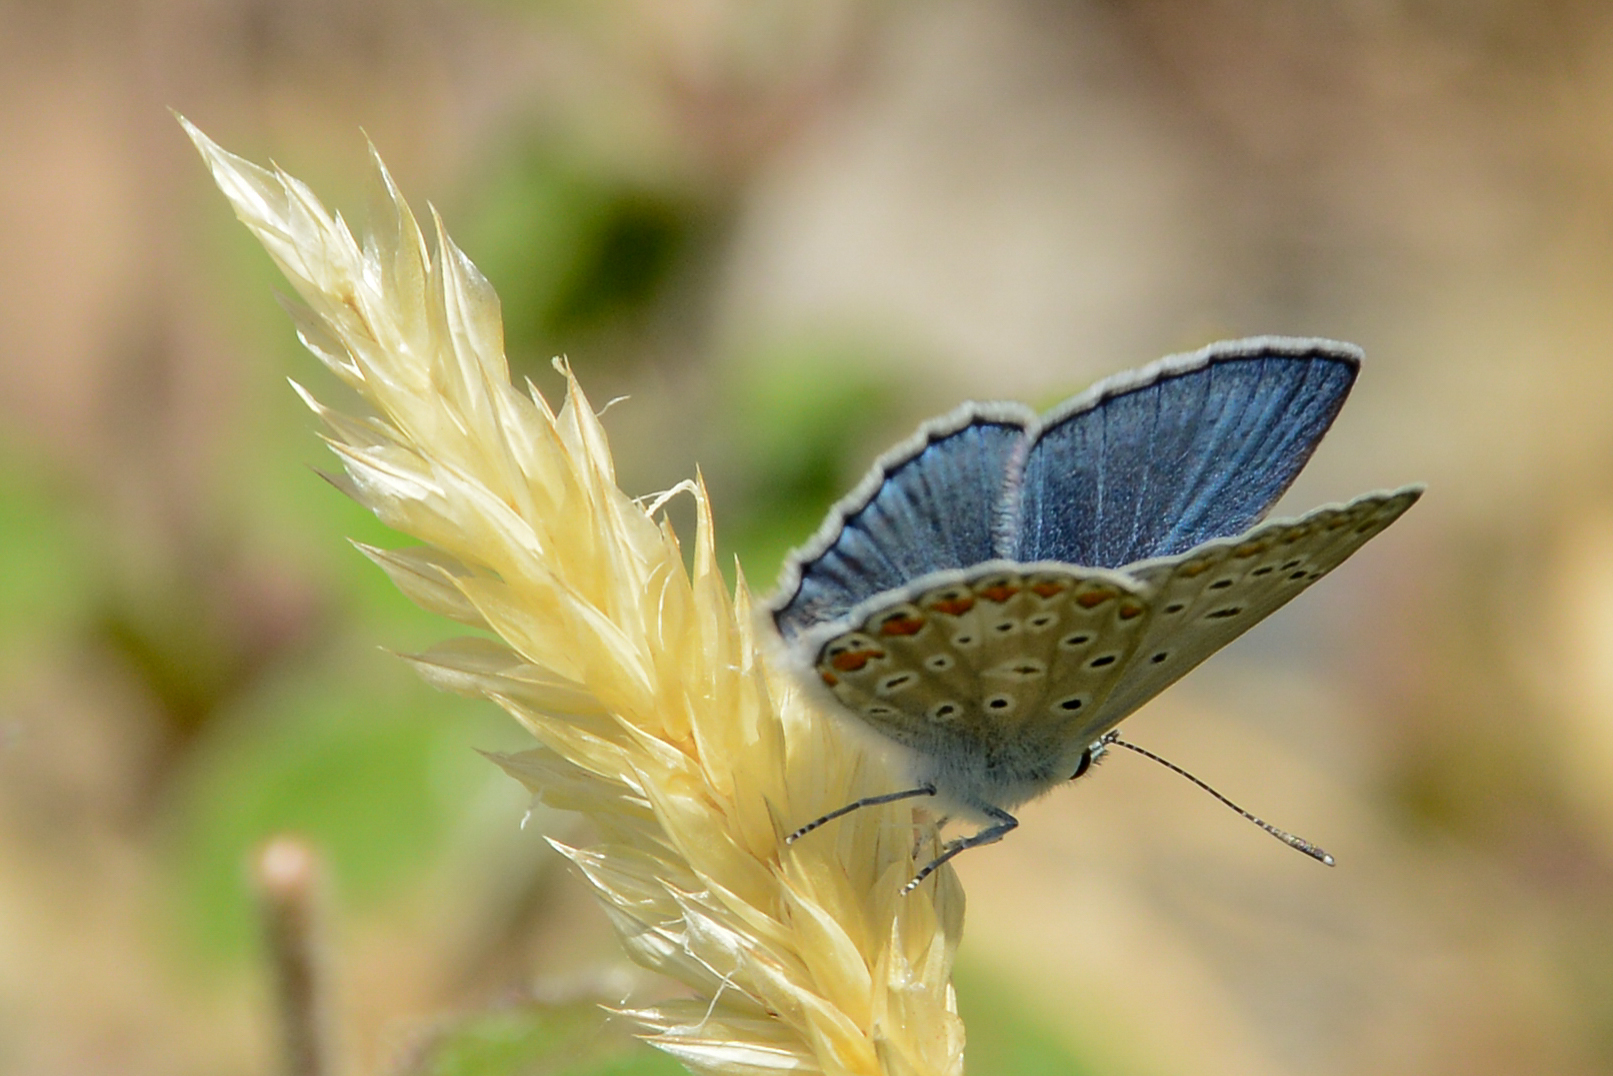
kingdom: Animalia
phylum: Arthropoda
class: Insecta
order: Lepidoptera
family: Lycaenidae
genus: Polyommatus
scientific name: Polyommatus icarus
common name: Common blue
